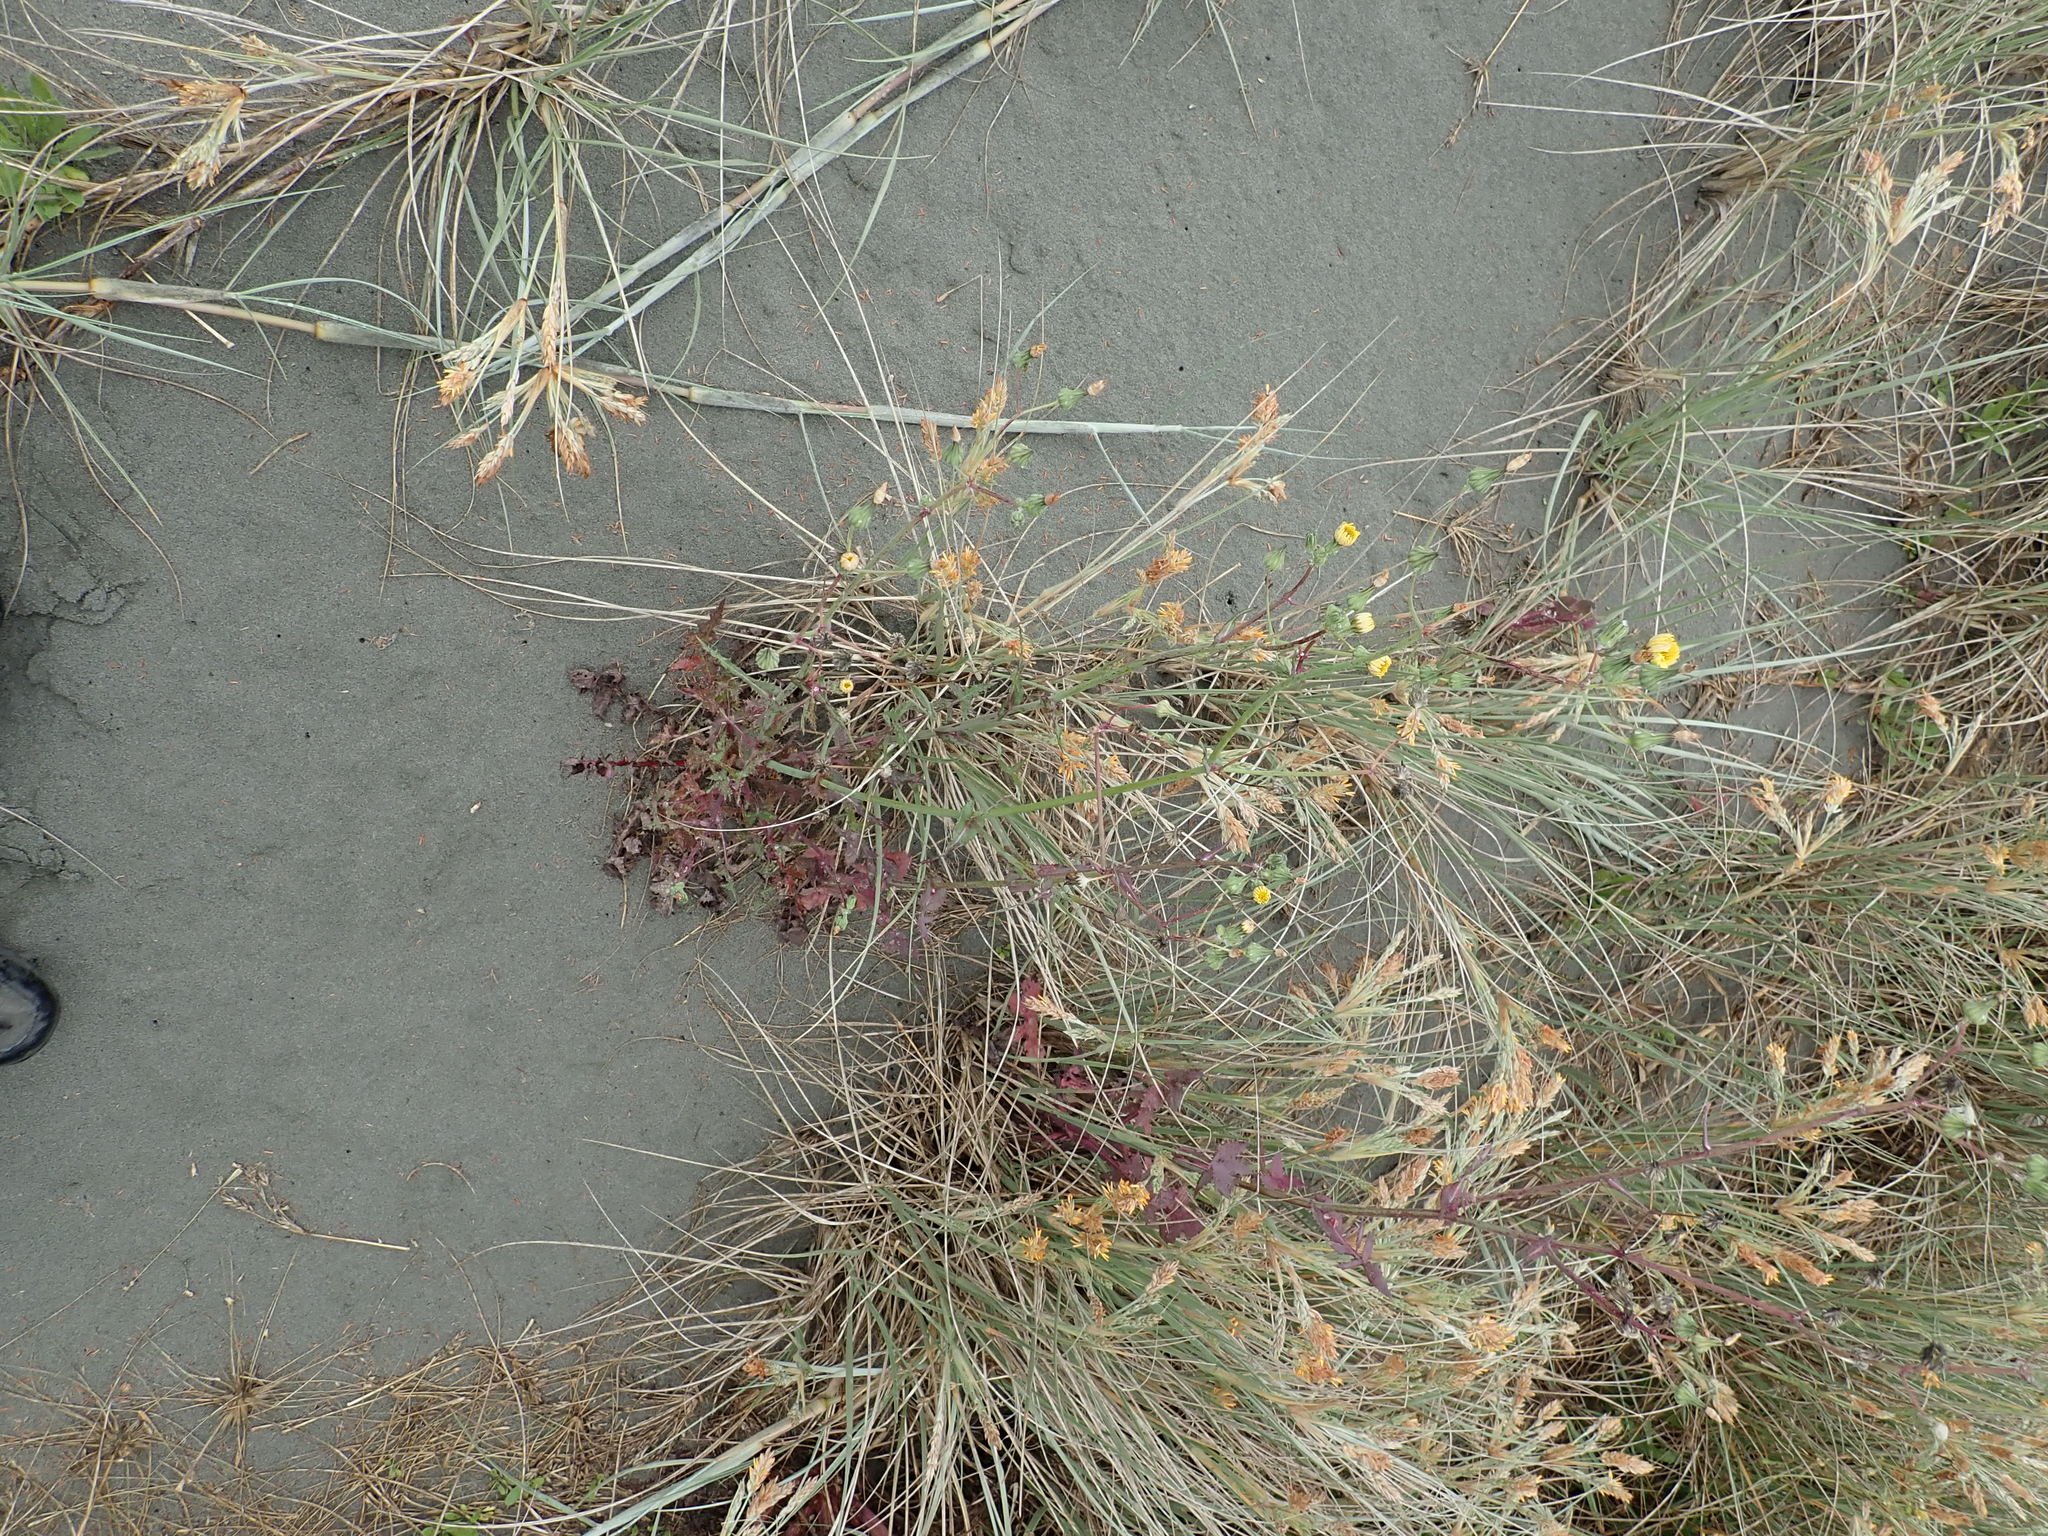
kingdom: Plantae
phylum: Tracheophyta
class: Magnoliopsida
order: Asterales
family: Asteraceae
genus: Sonchus
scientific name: Sonchus oleraceus
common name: Common sowthistle
